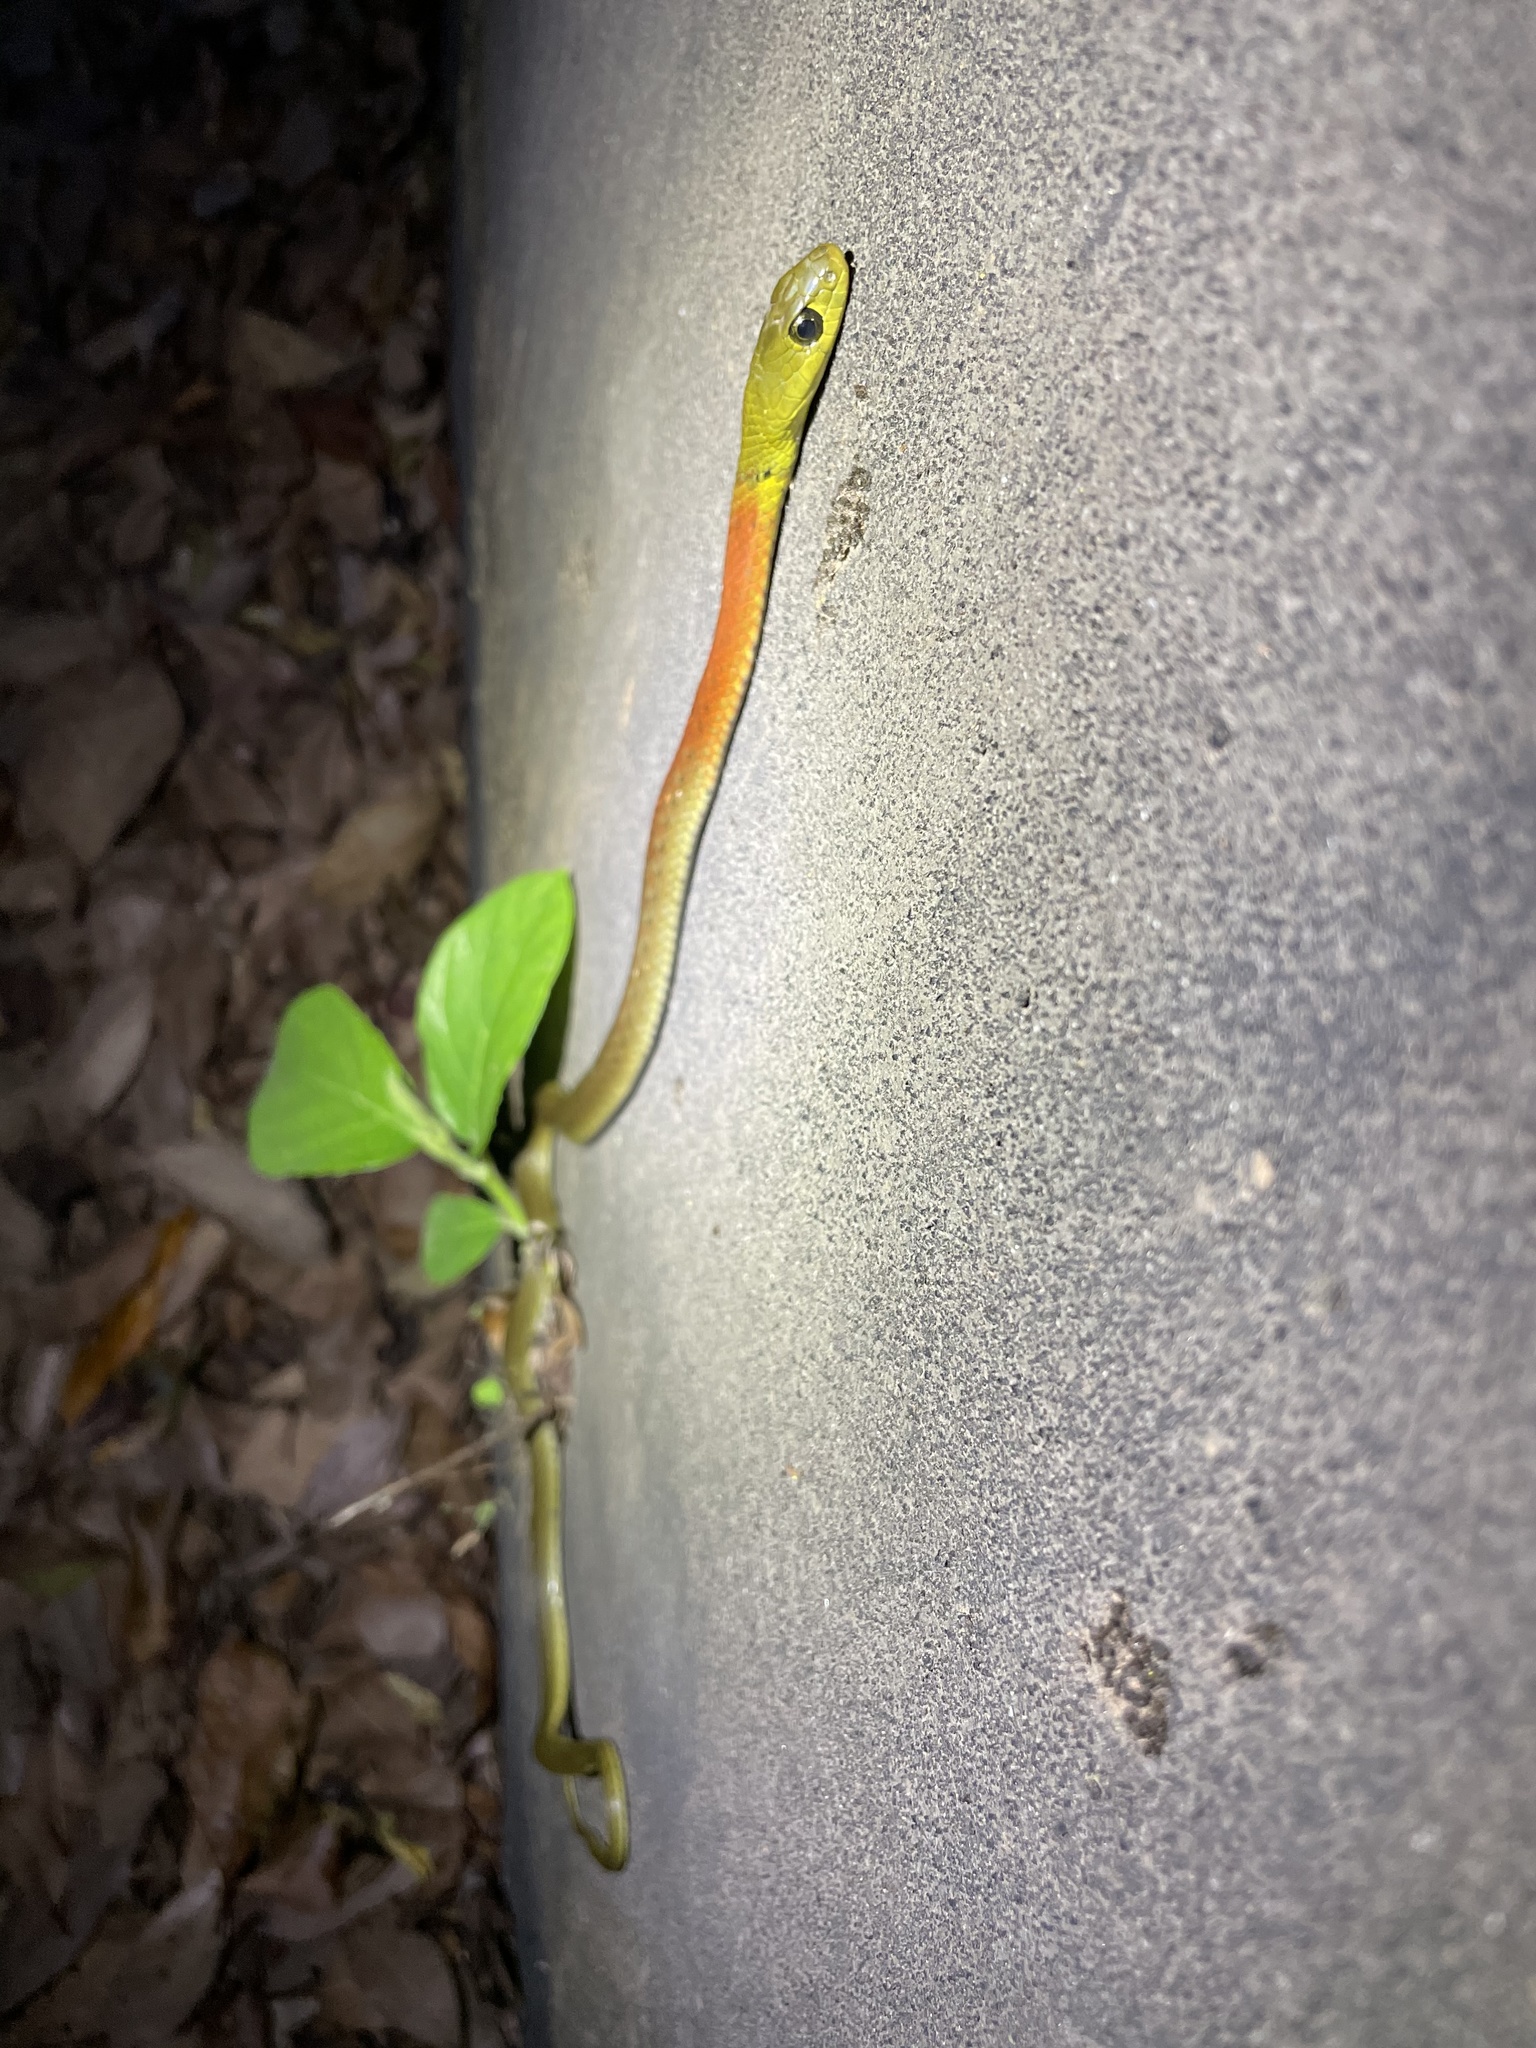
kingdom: Animalia
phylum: Chordata
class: Squamata
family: Colubridae
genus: Rhabdophis
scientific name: Rhabdophis helleri
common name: Heller’s red-necked keelback
